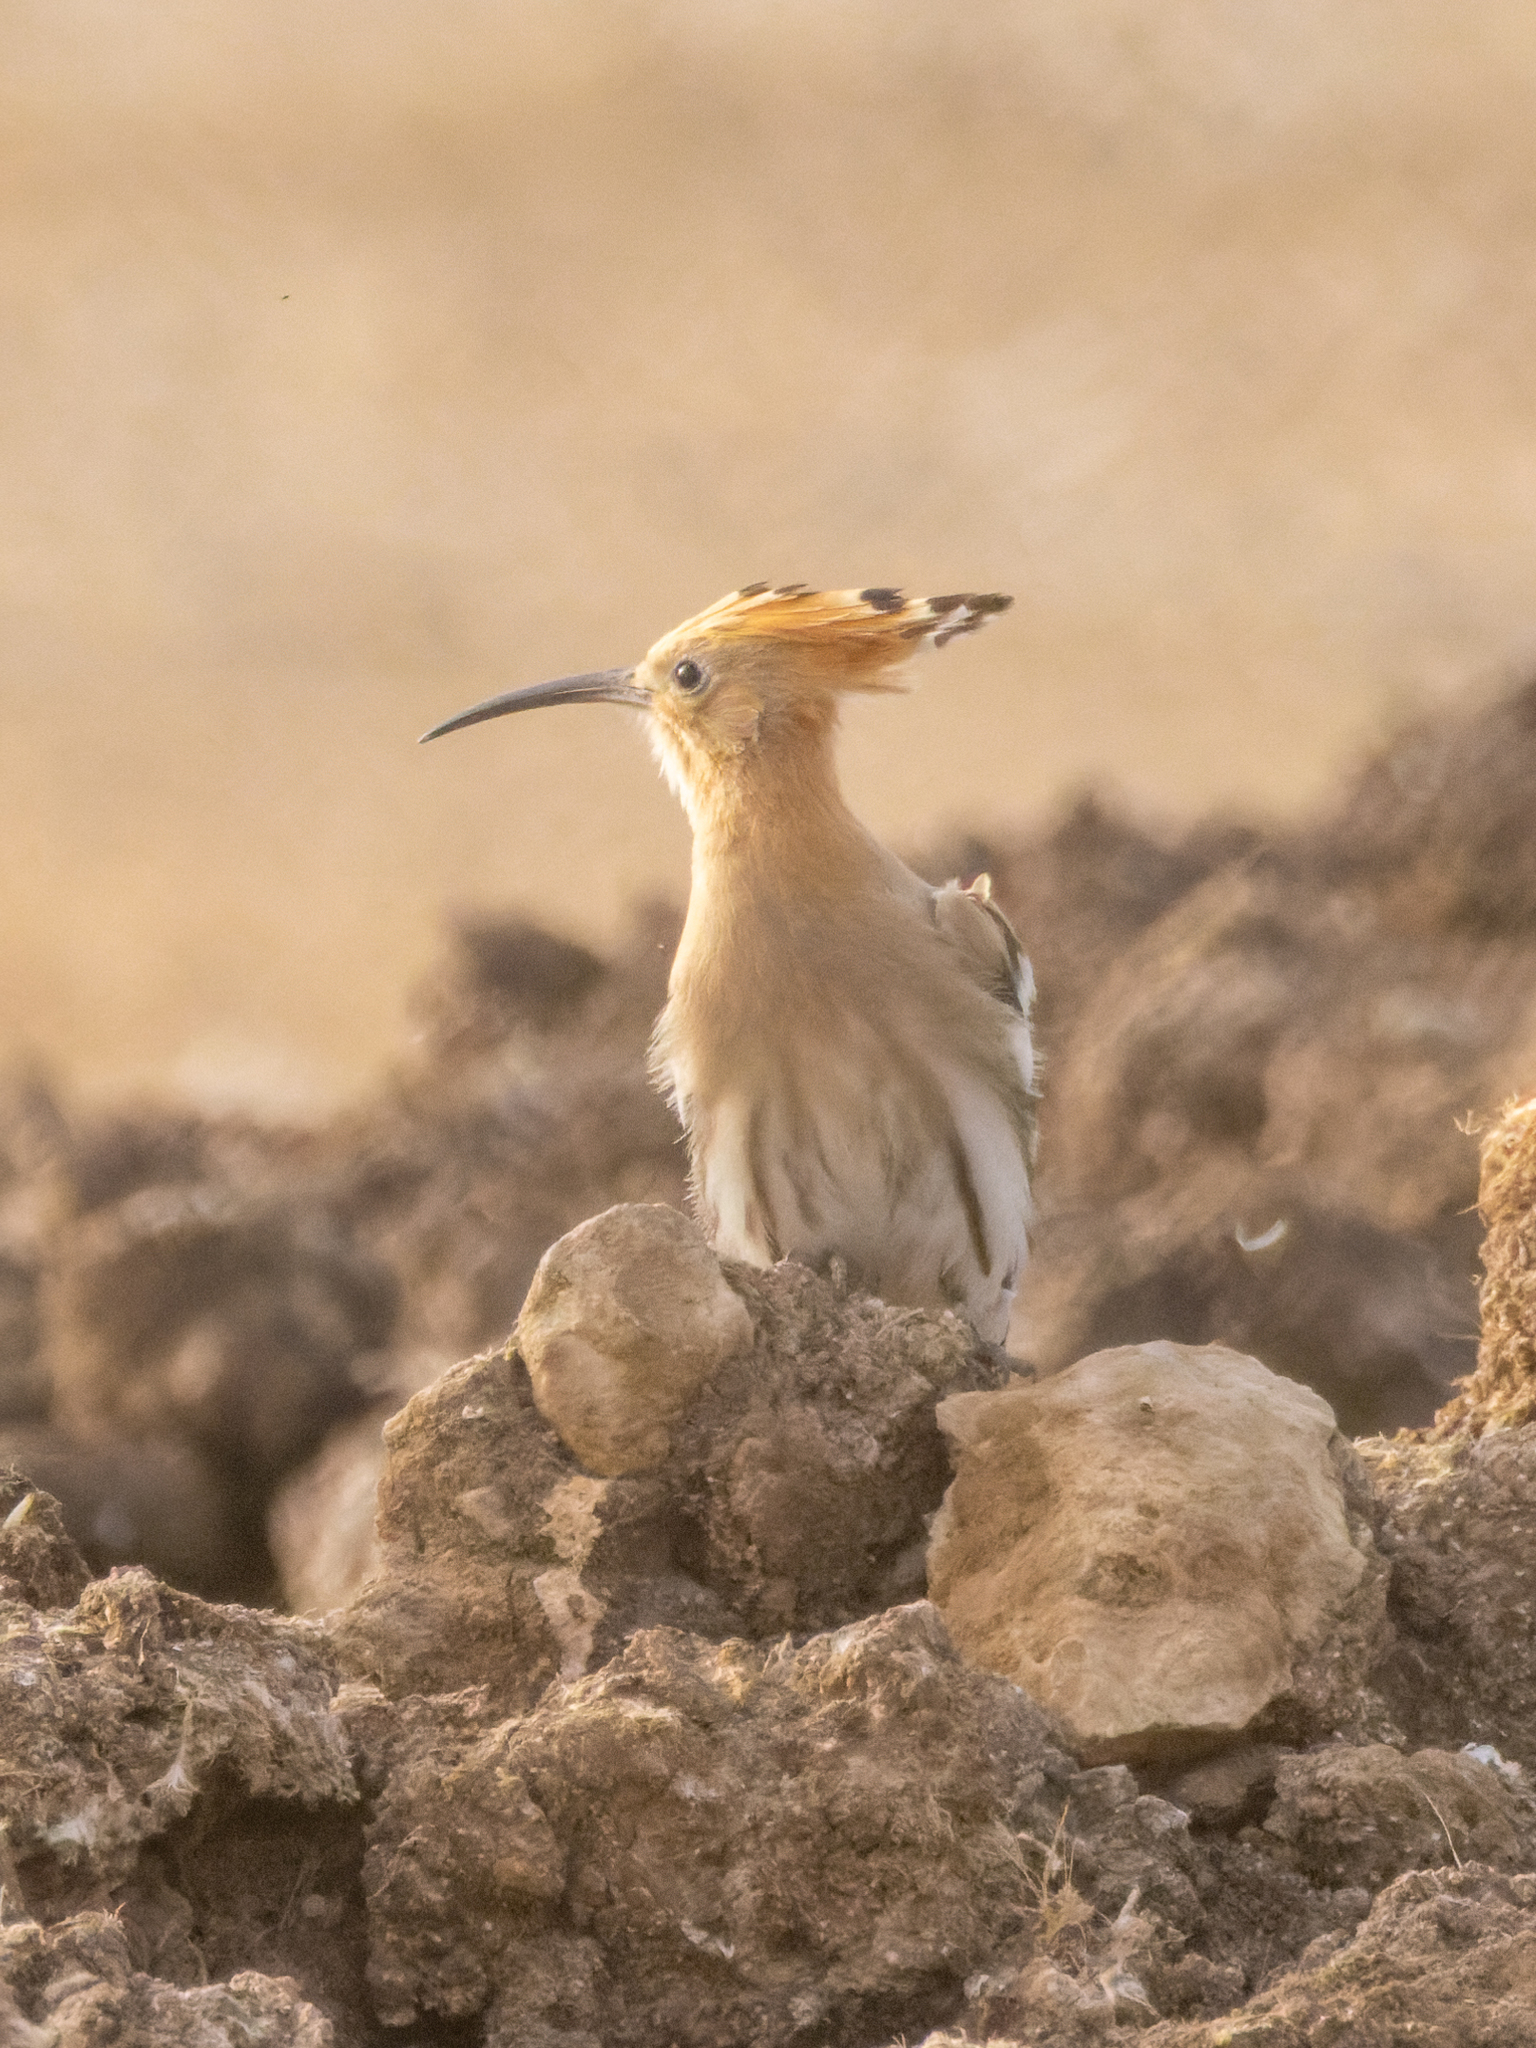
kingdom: Animalia
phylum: Chordata
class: Aves
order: Bucerotiformes
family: Upupidae
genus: Upupa
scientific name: Upupa epops
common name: Eurasian hoopoe
